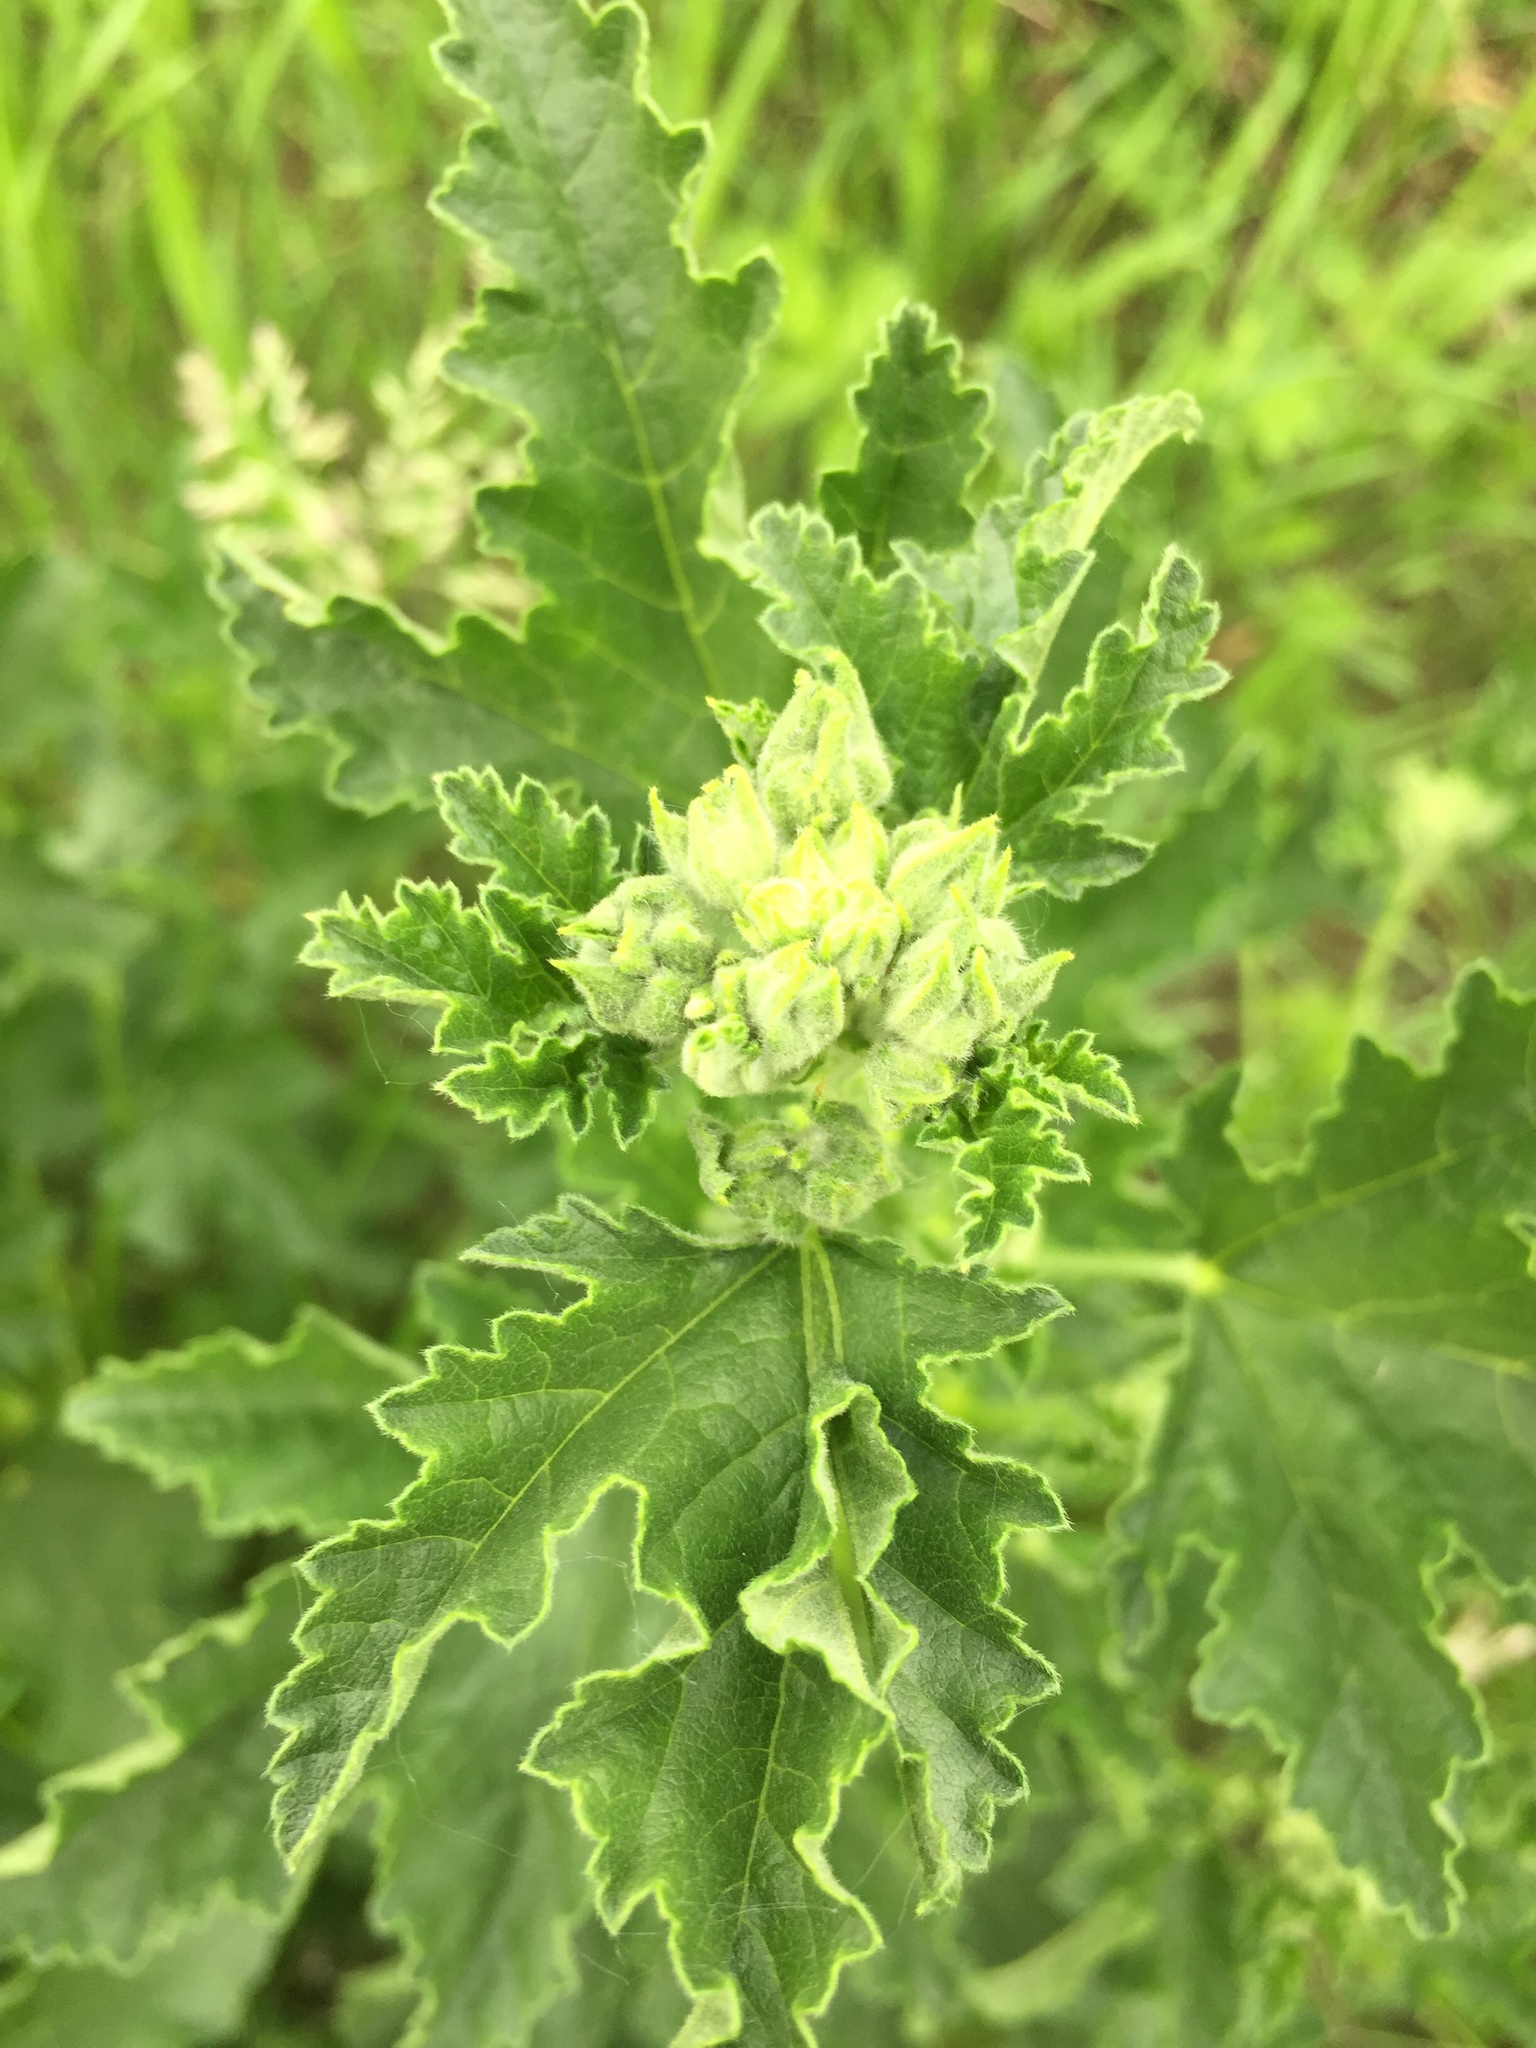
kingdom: Plantae
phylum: Tracheophyta
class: Magnoliopsida
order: Malvales
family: Malvaceae
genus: Malva
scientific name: Malva thuringiaca
